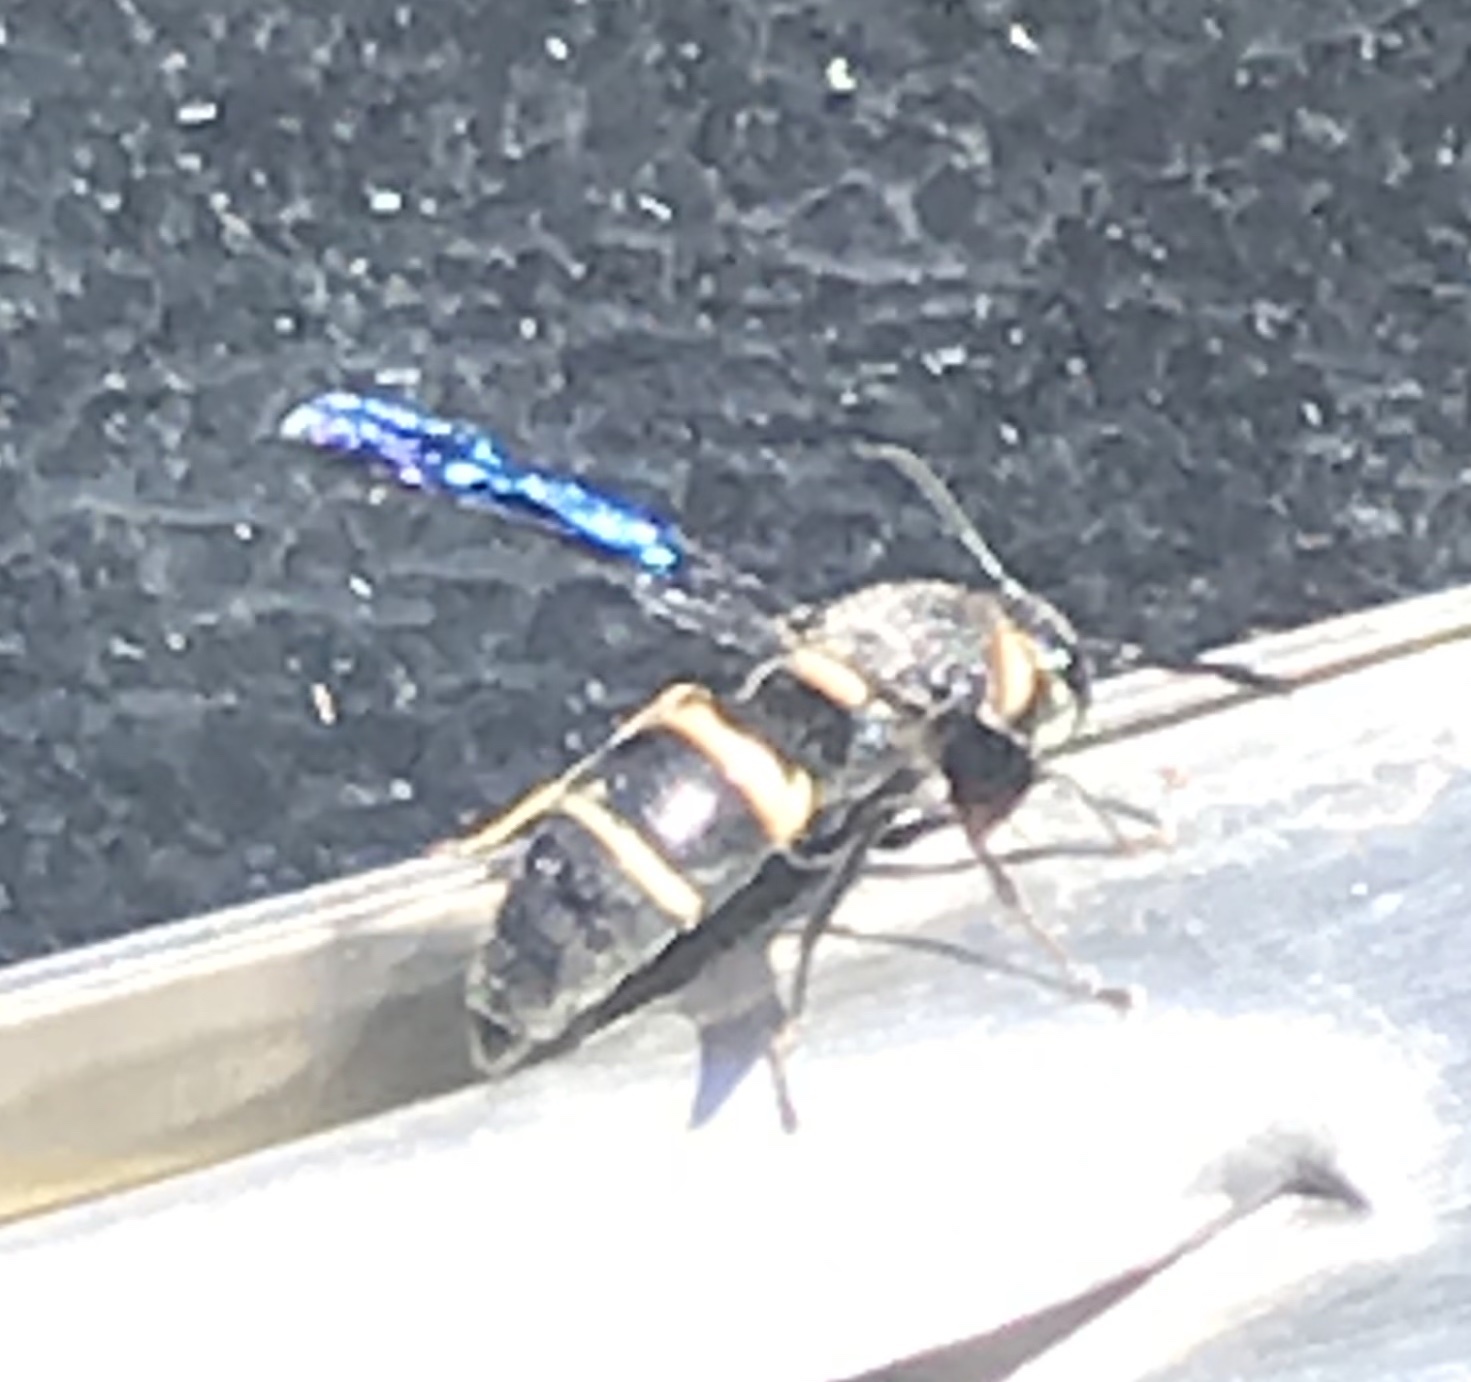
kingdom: Animalia
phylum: Arthropoda
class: Insecta
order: Hymenoptera
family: Eumenidae
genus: Euodynerus
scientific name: Euodynerus megaera
